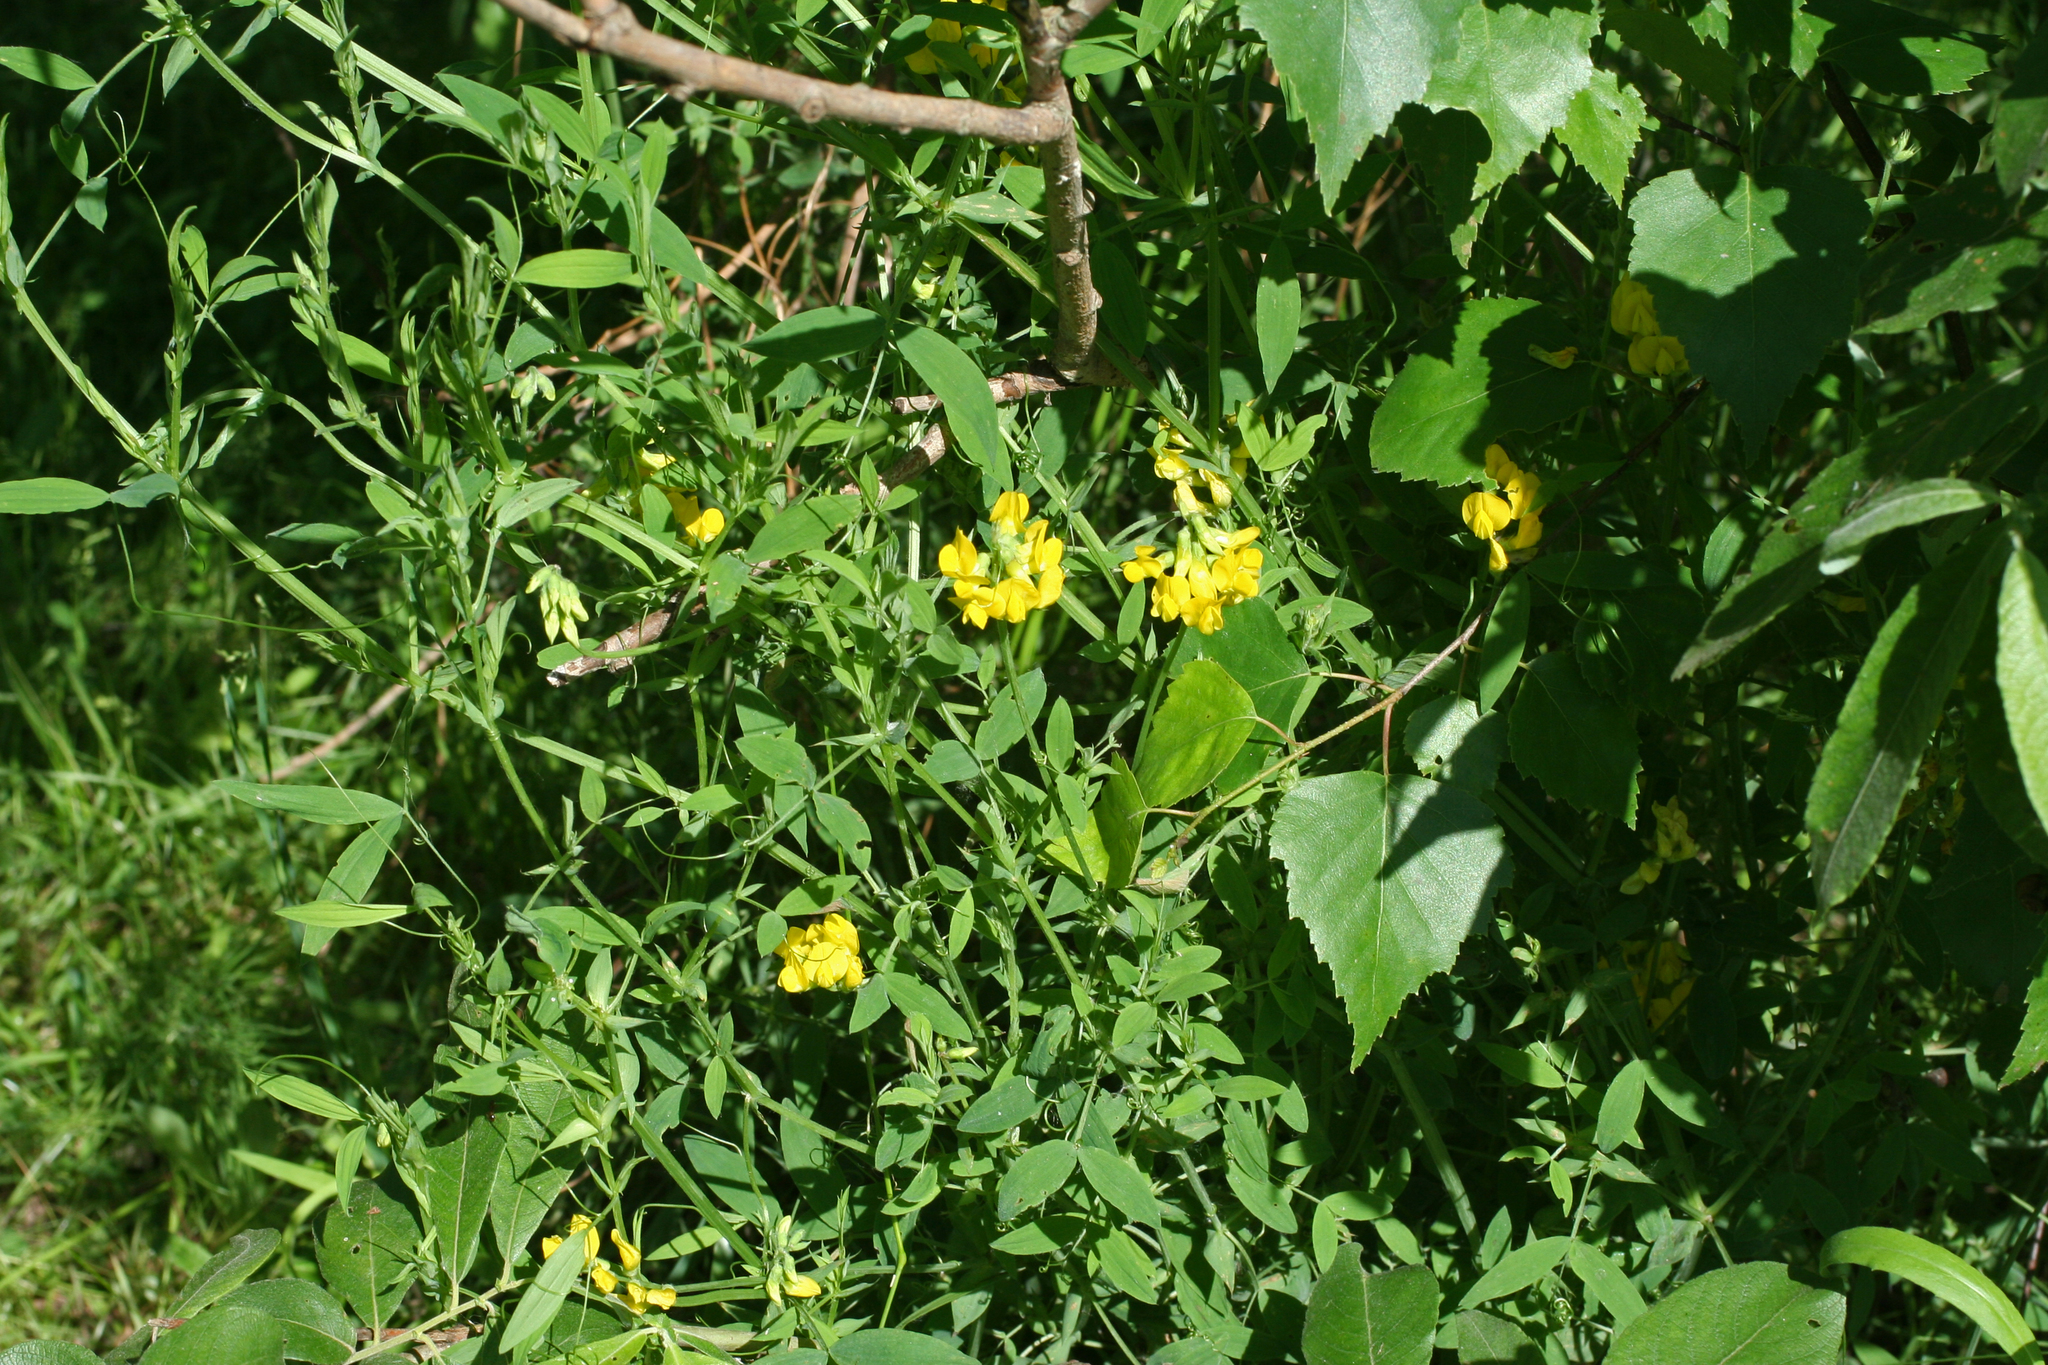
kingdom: Plantae
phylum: Tracheophyta
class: Magnoliopsida
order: Fabales
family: Fabaceae
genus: Lathyrus
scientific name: Lathyrus pratensis
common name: Meadow vetchling
